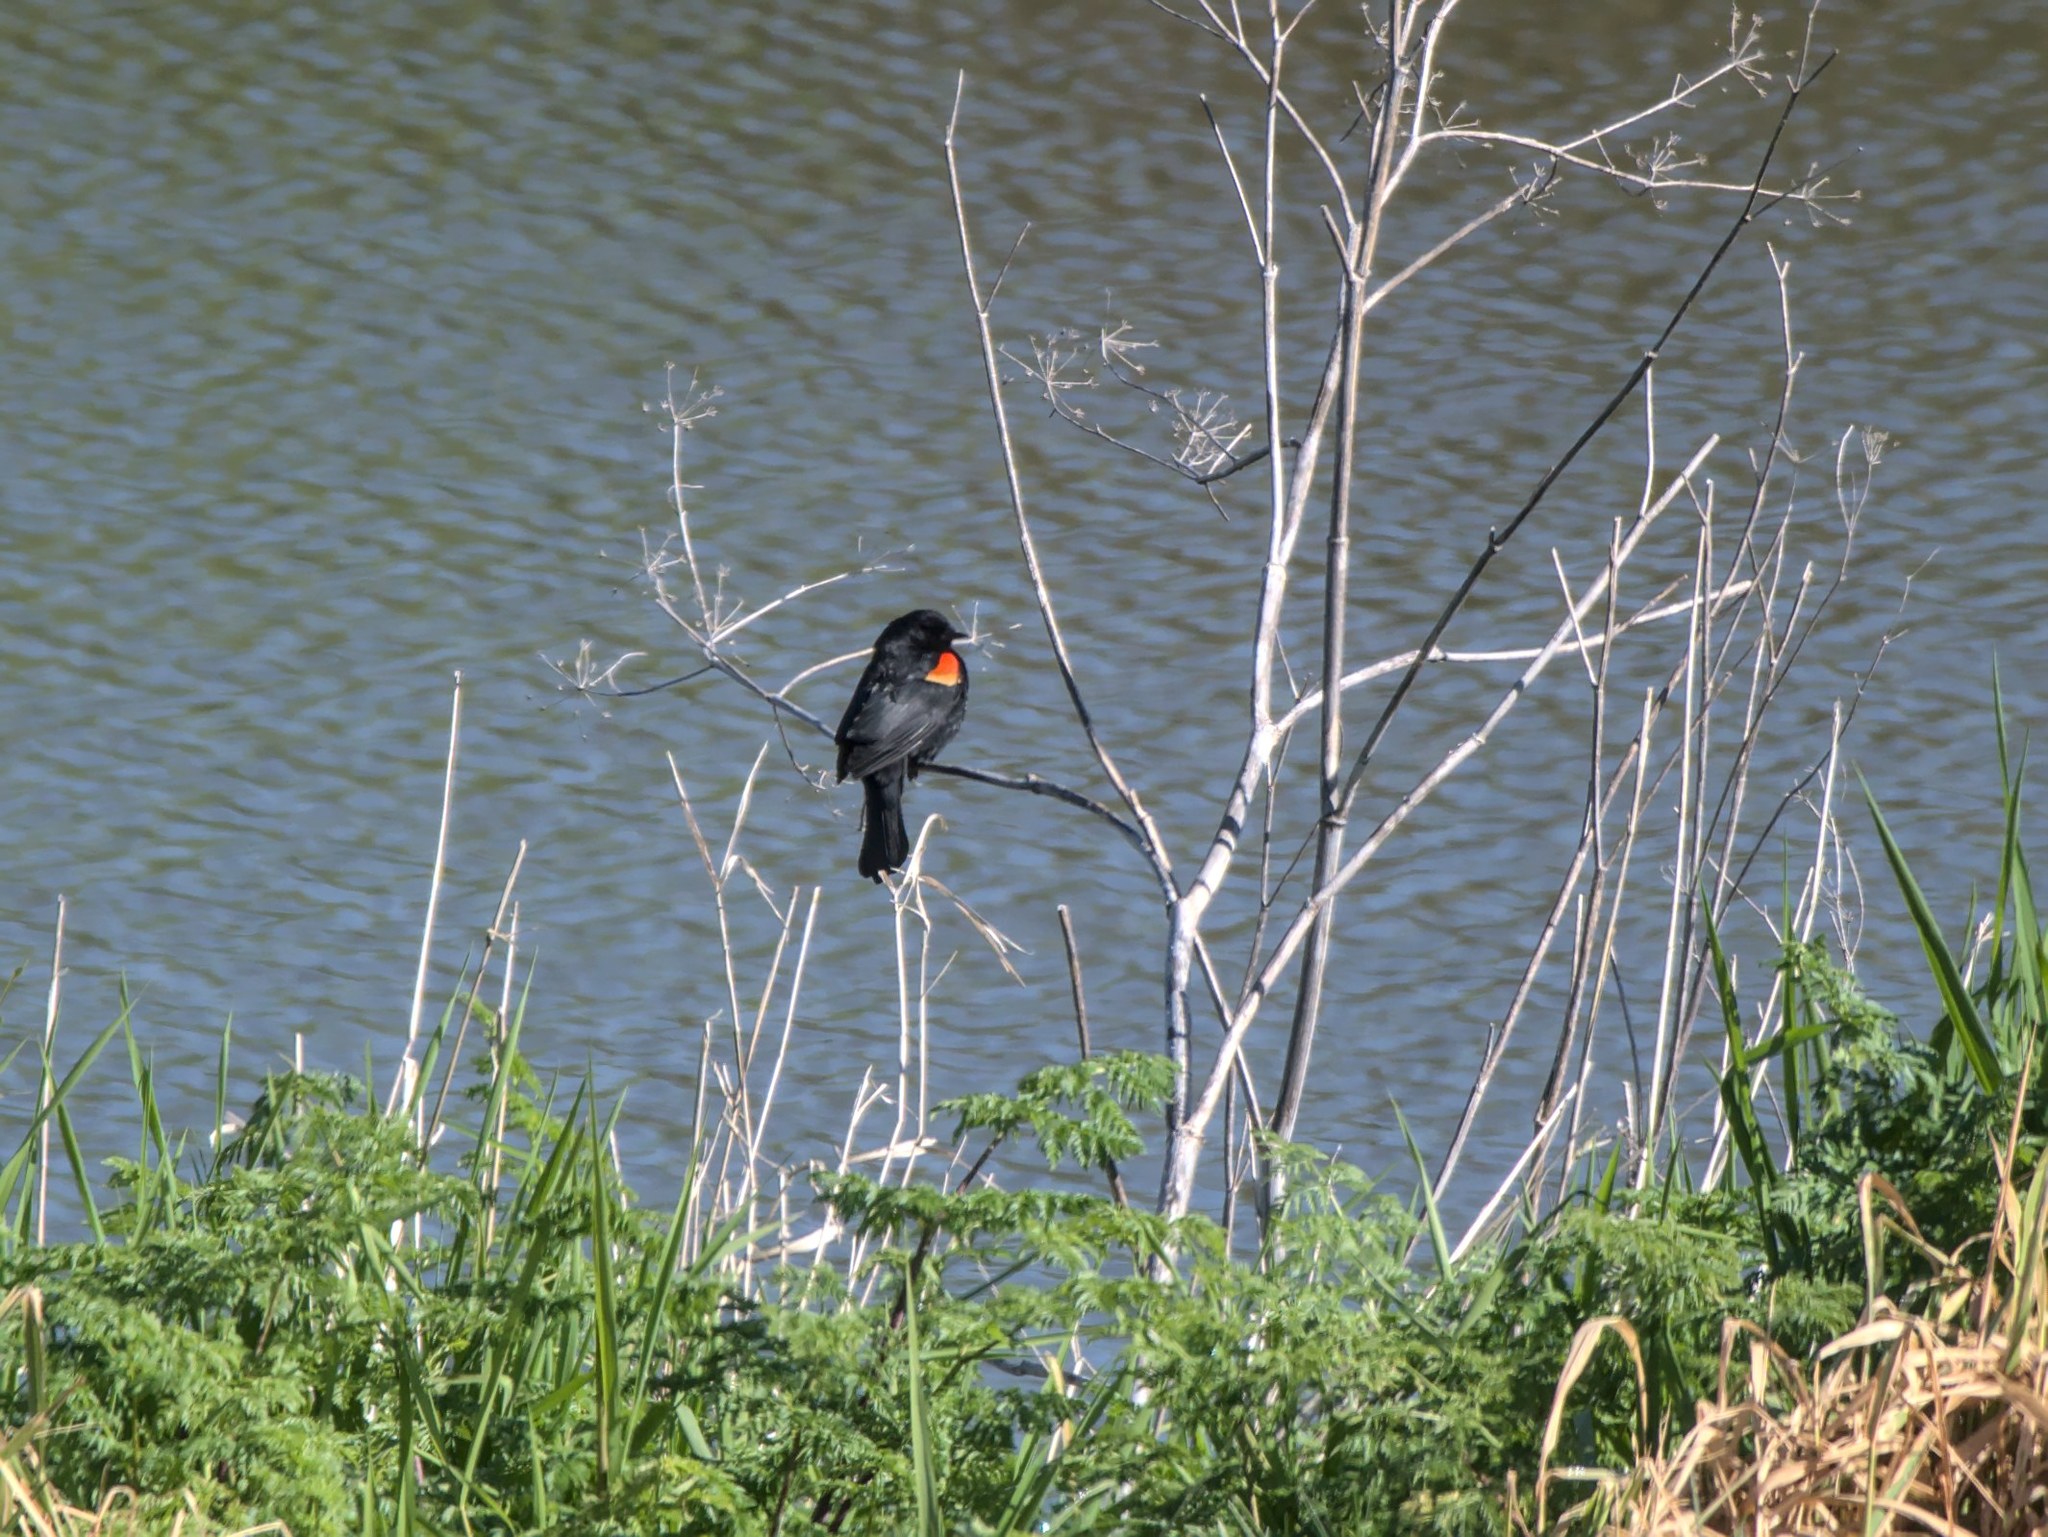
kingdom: Animalia
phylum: Chordata
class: Aves
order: Passeriformes
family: Icteridae
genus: Agelaius
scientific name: Agelaius phoeniceus
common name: Red-winged blackbird
